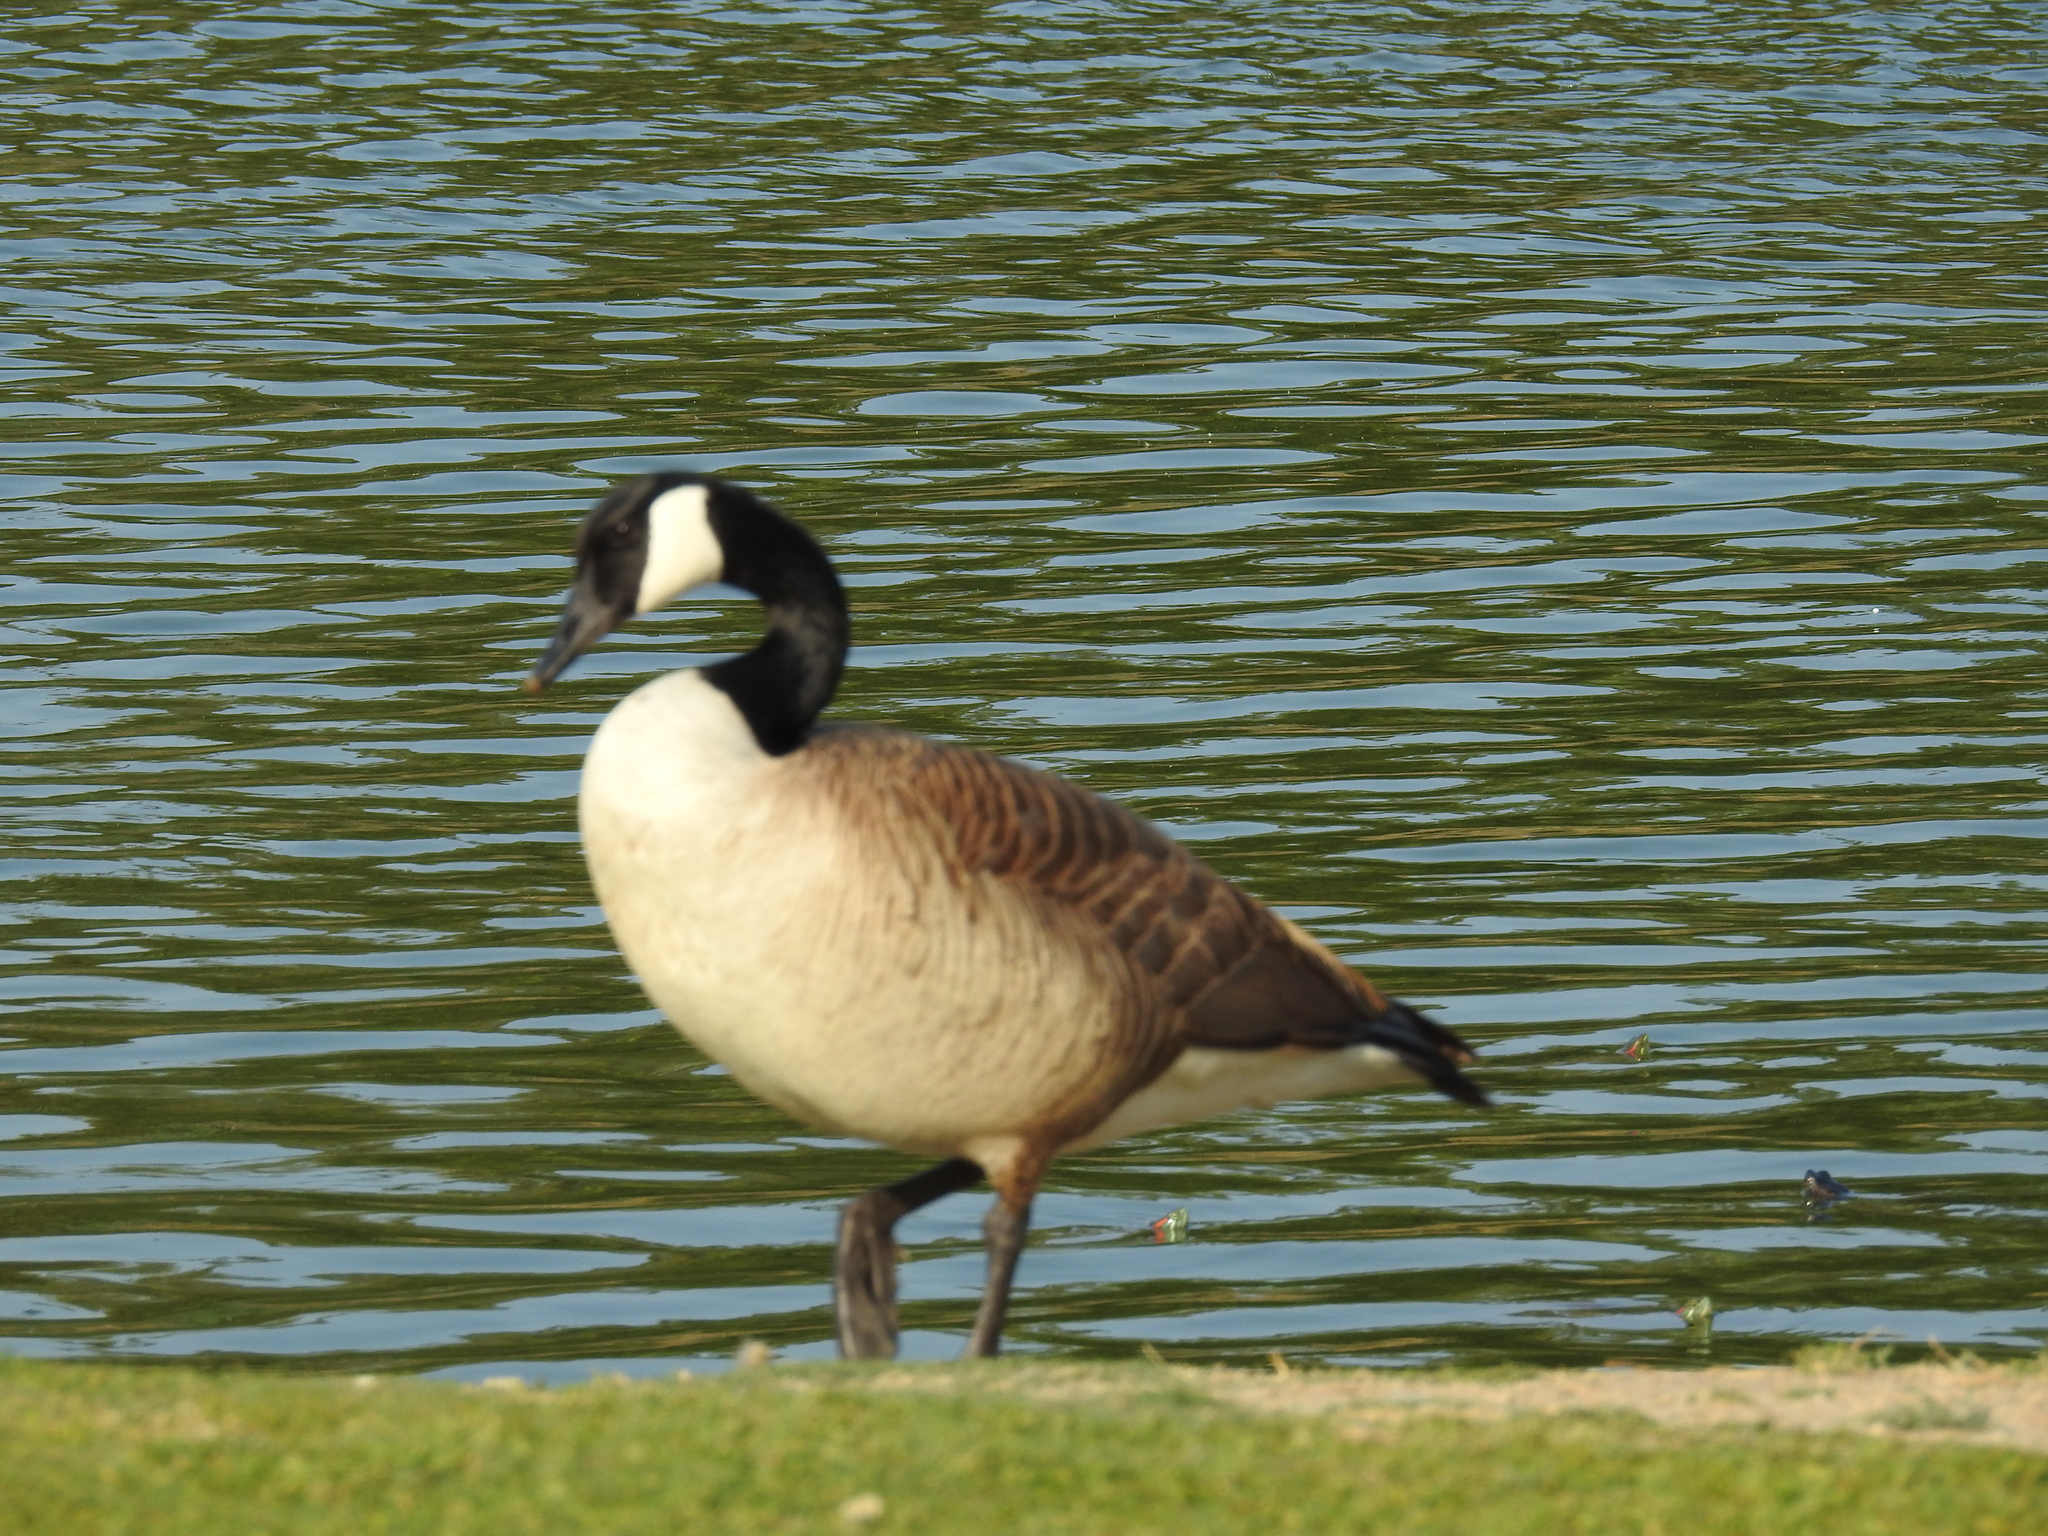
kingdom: Animalia
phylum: Chordata
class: Aves
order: Anseriformes
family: Anatidae
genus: Branta
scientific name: Branta canadensis
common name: Canada goose
